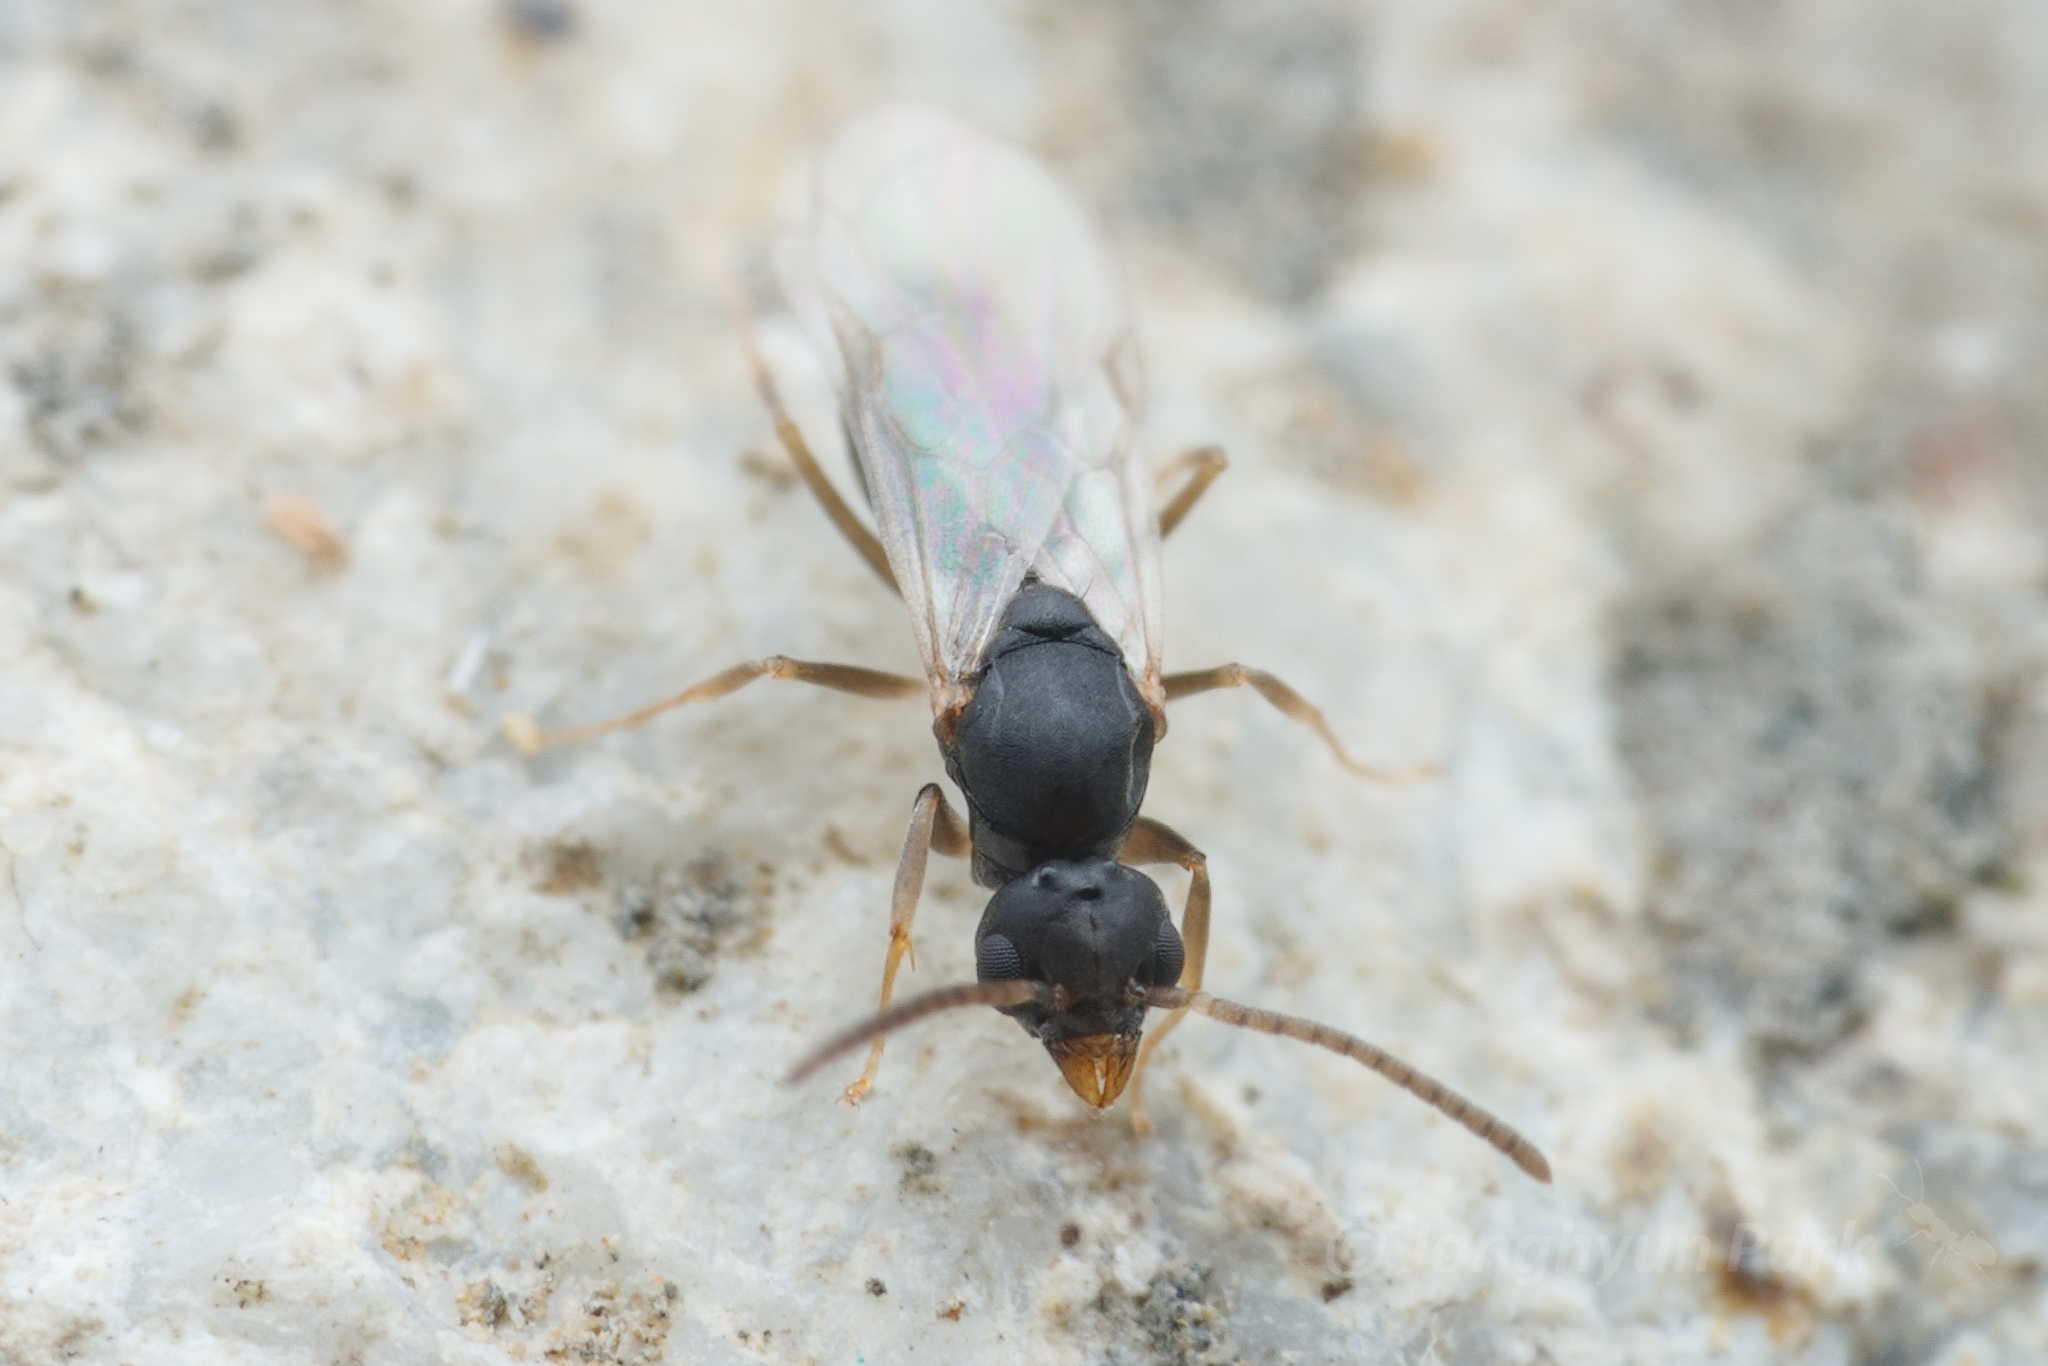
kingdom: Animalia
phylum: Arthropoda
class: Insecta
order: Hymenoptera
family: Formicidae
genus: Technomyrmex
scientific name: Technomyrmex vitiensis
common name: Ant
